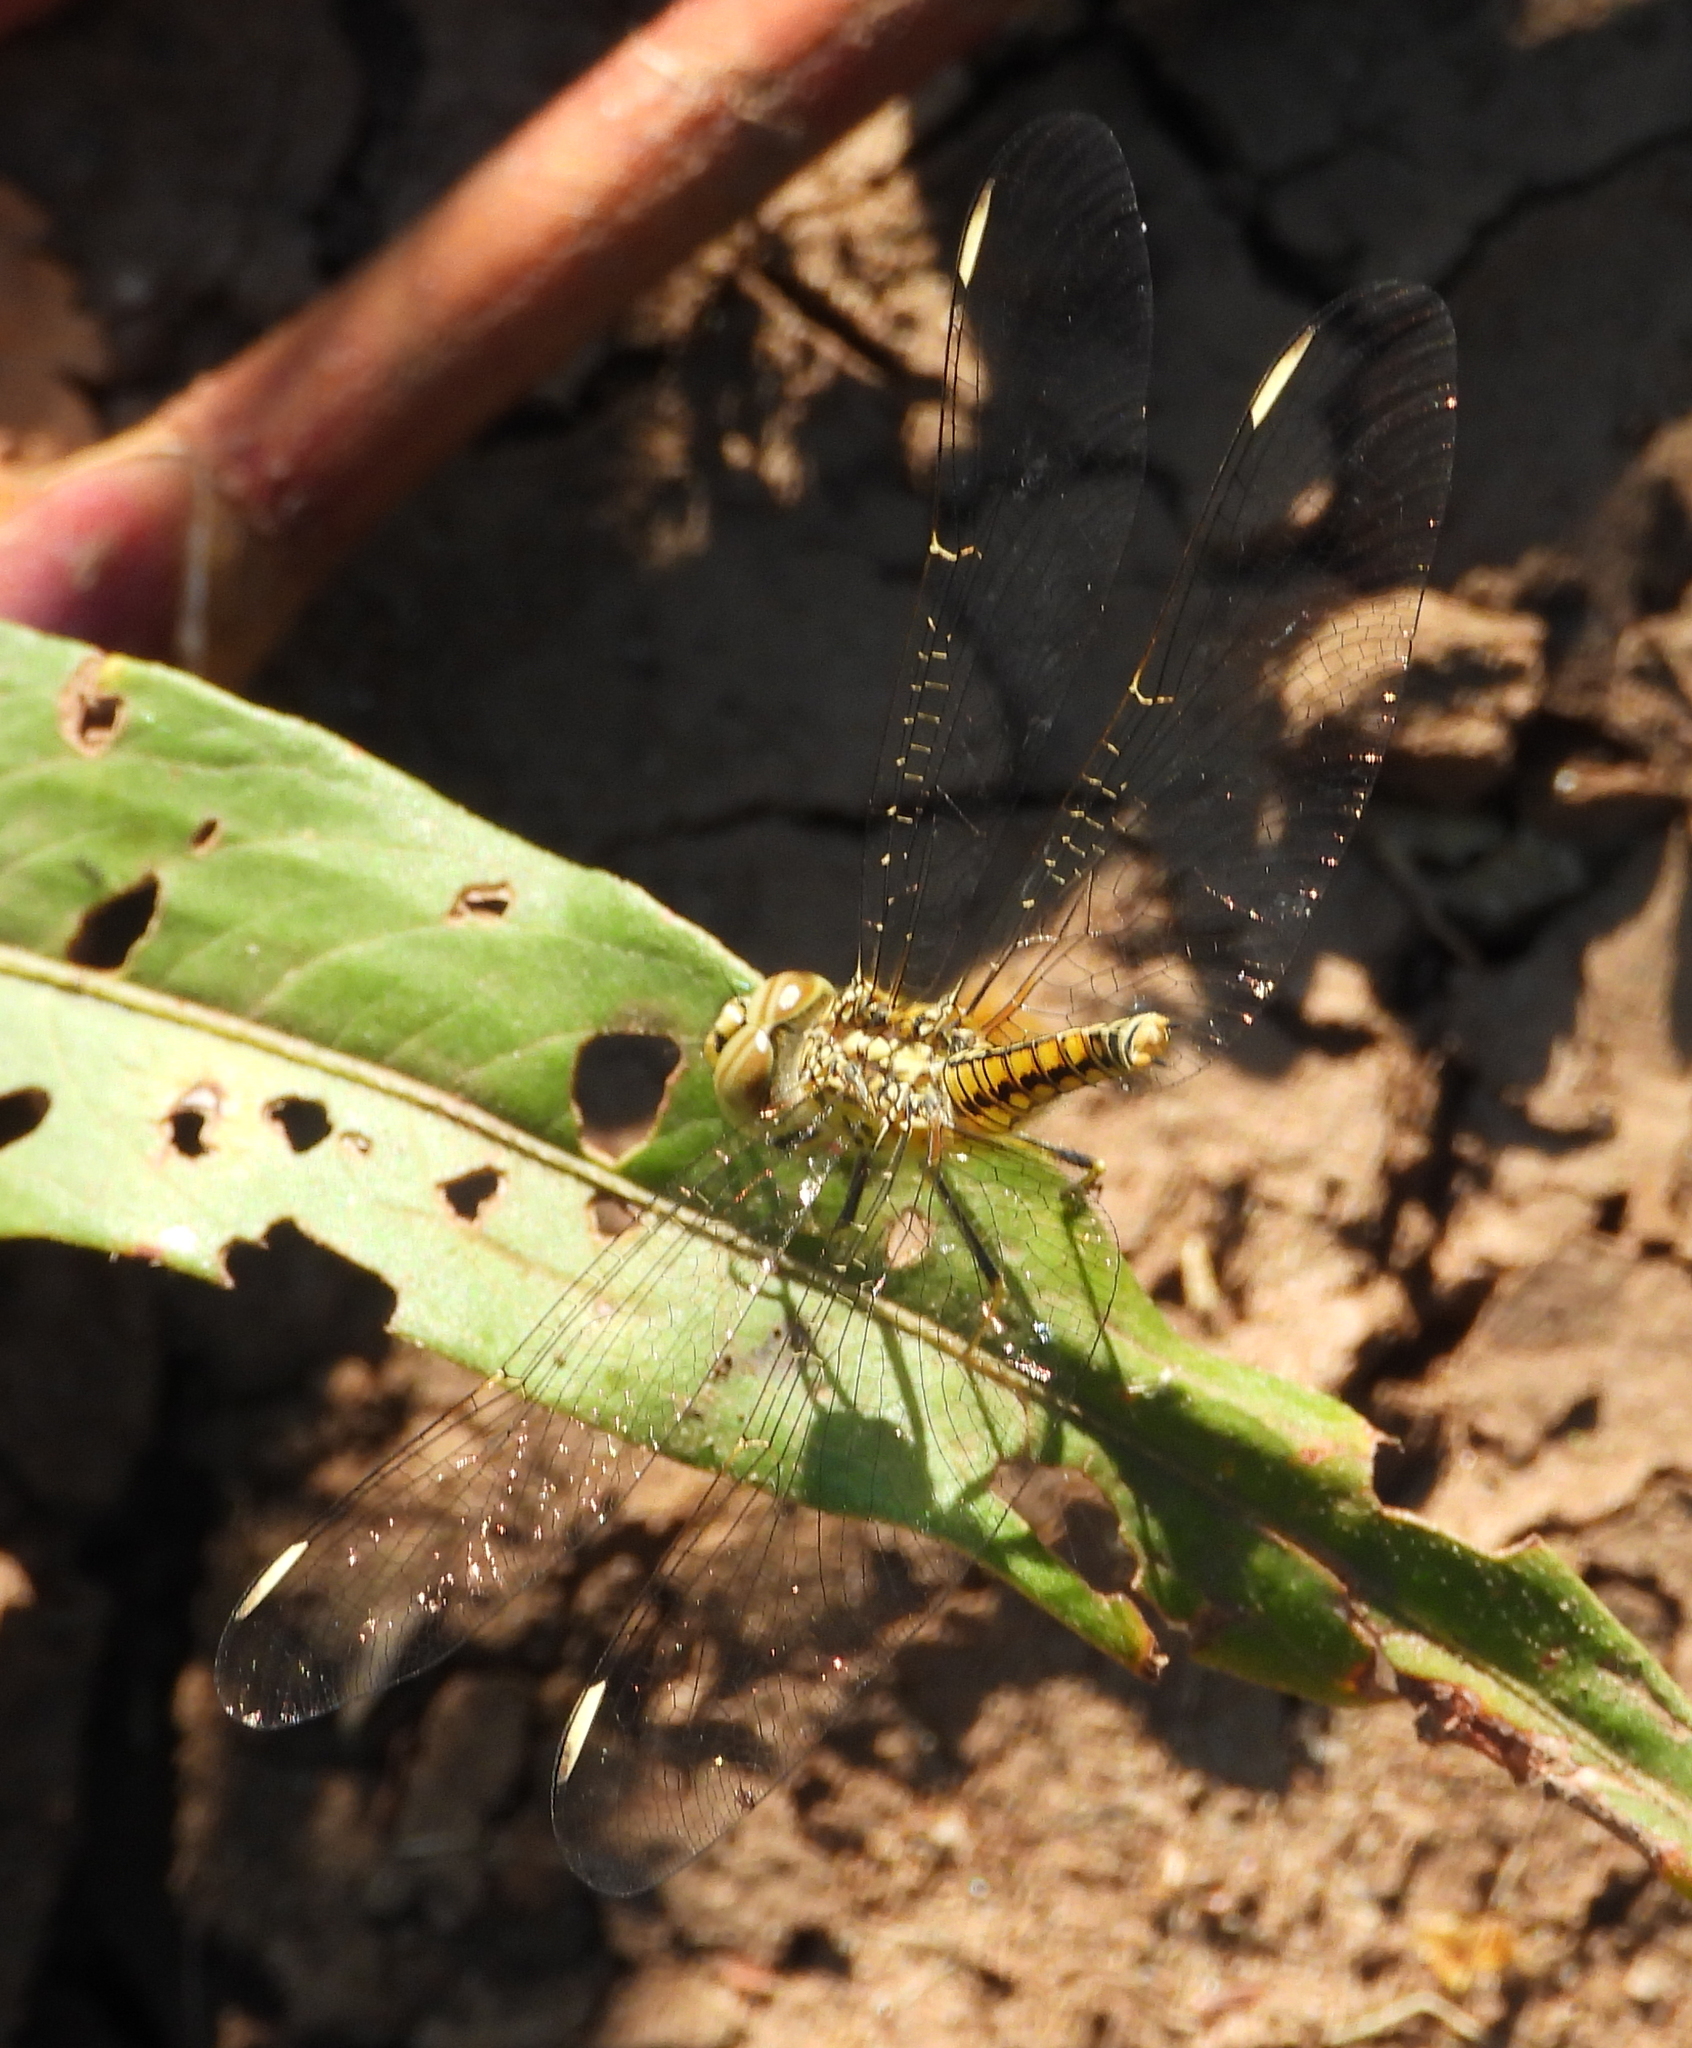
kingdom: Animalia
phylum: Arthropoda
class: Insecta
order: Odonata
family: Libellulidae
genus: Brachythemis
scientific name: Brachythemis leucosticta
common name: Banded groundling
